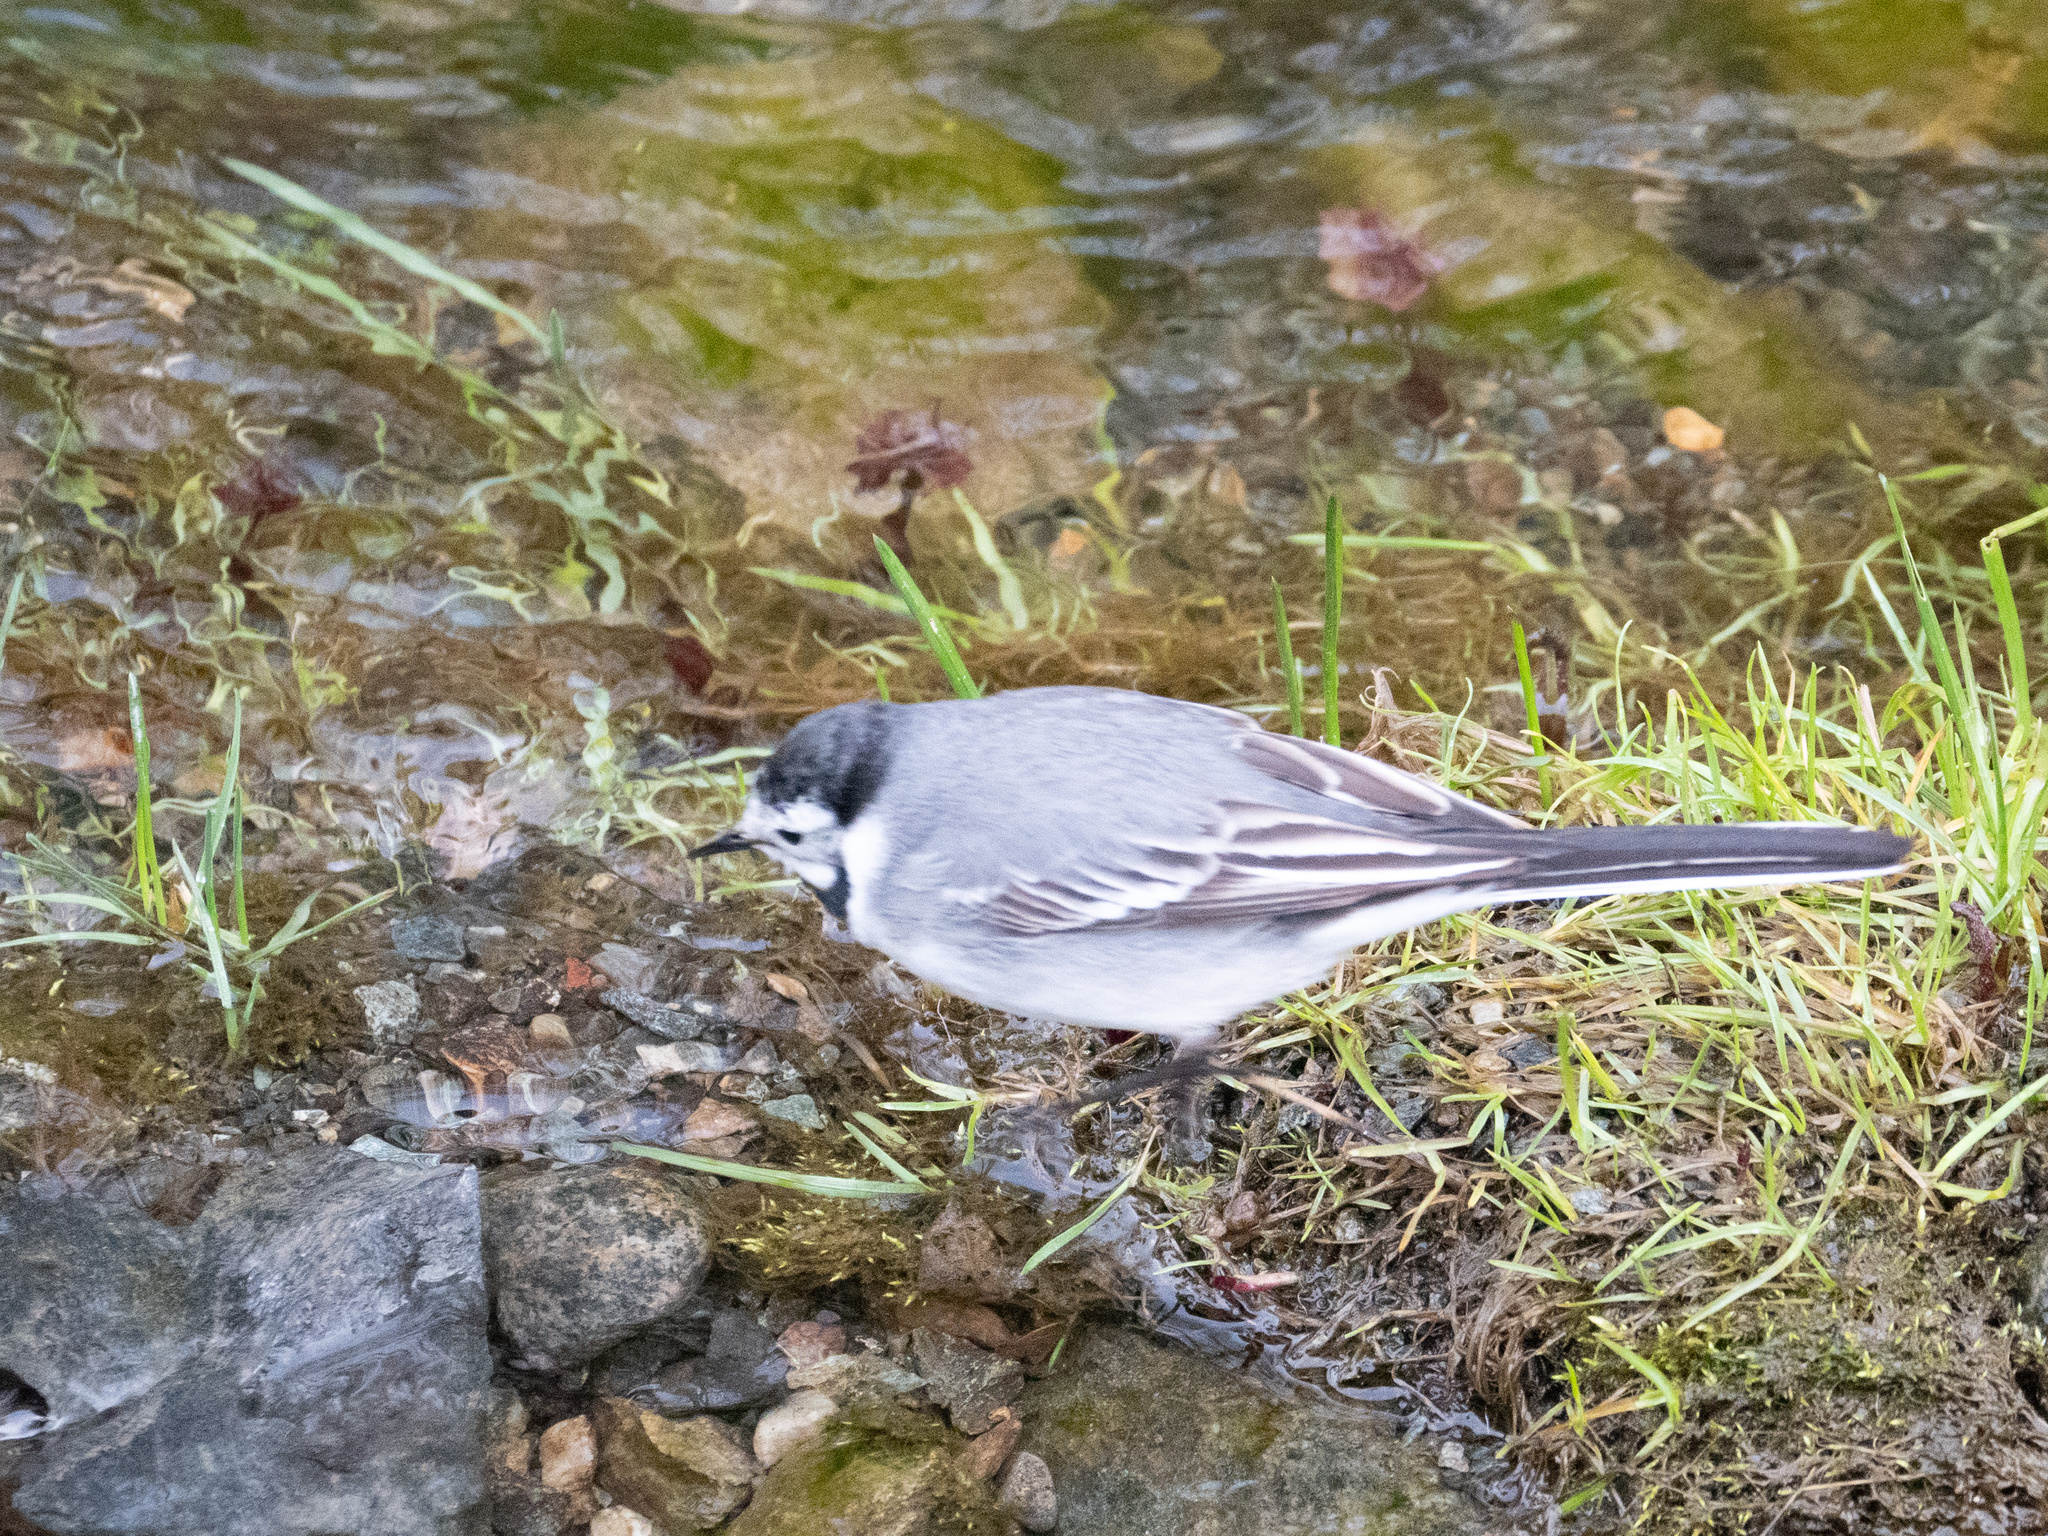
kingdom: Animalia
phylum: Chordata
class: Aves
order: Passeriformes
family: Motacillidae
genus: Motacilla
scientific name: Motacilla alba
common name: White wagtail
